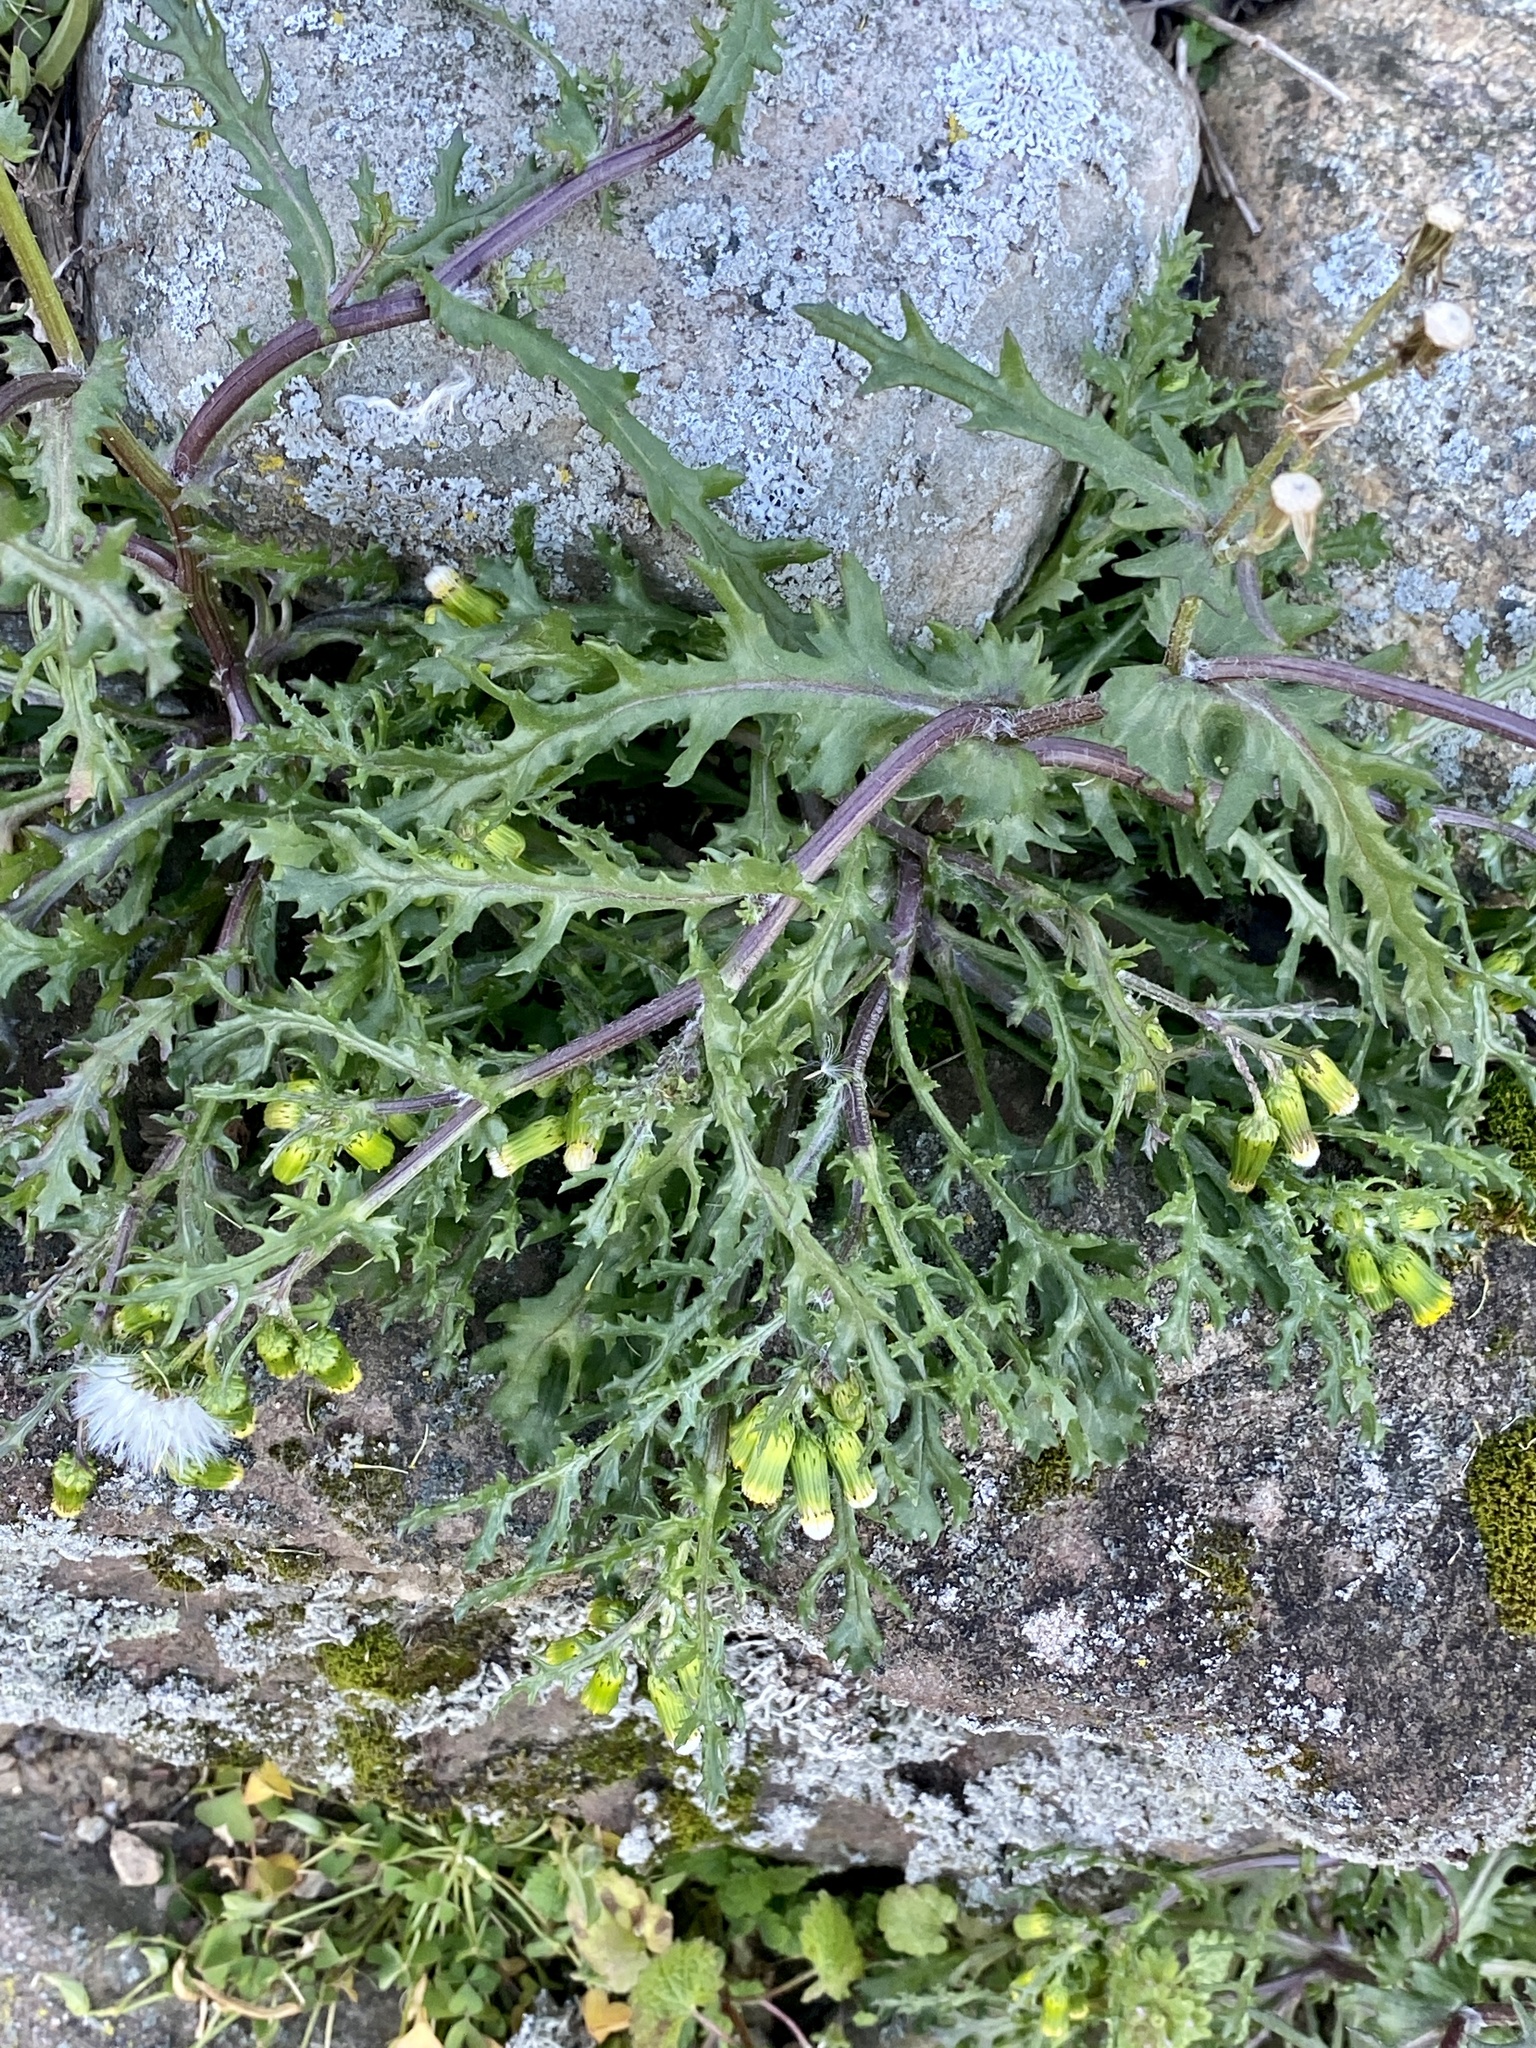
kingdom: Plantae
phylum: Tracheophyta
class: Magnoliopsida
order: Asterales
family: Asteraceae
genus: Senecio
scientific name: Senecio vulgaris
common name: Old-man-in-the-spring
